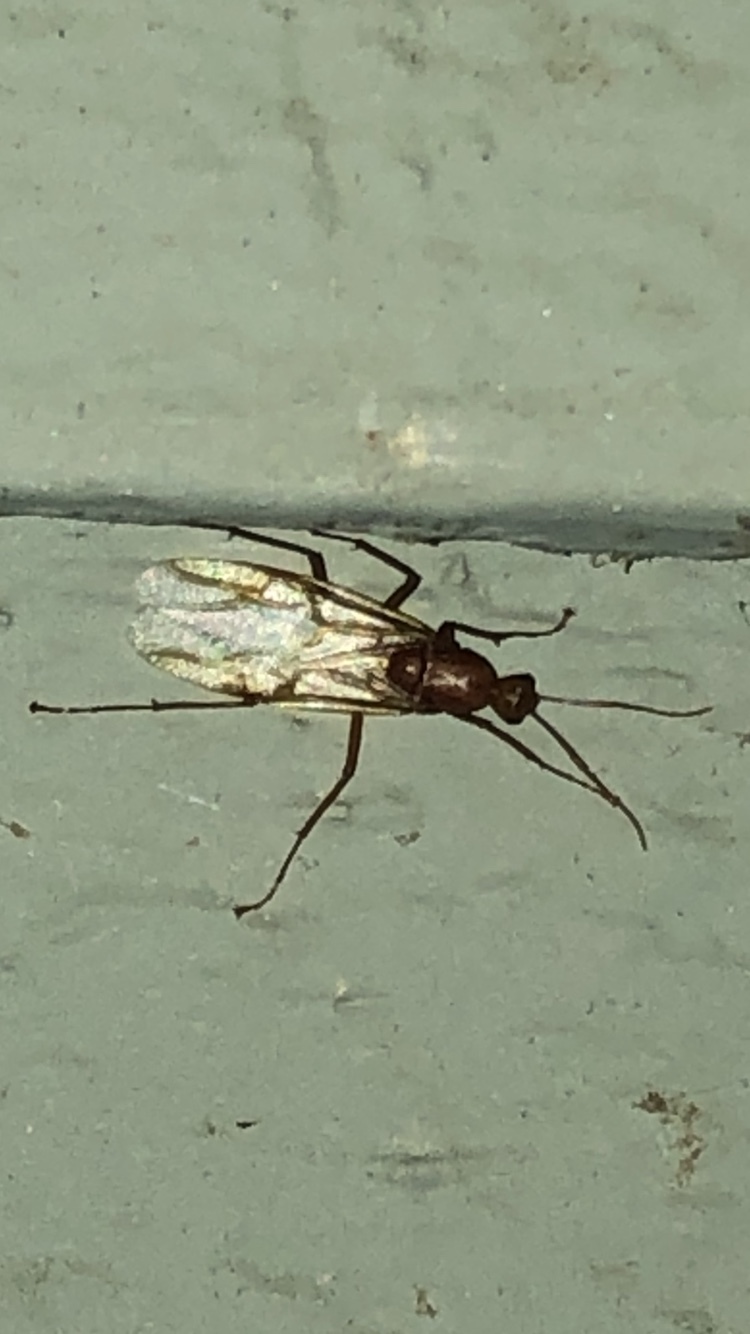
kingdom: Animalia
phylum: Arthropoda
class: Insecta
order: Hymenoptera
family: Formicidae
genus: Camponotus
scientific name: Camponotus castaneus
